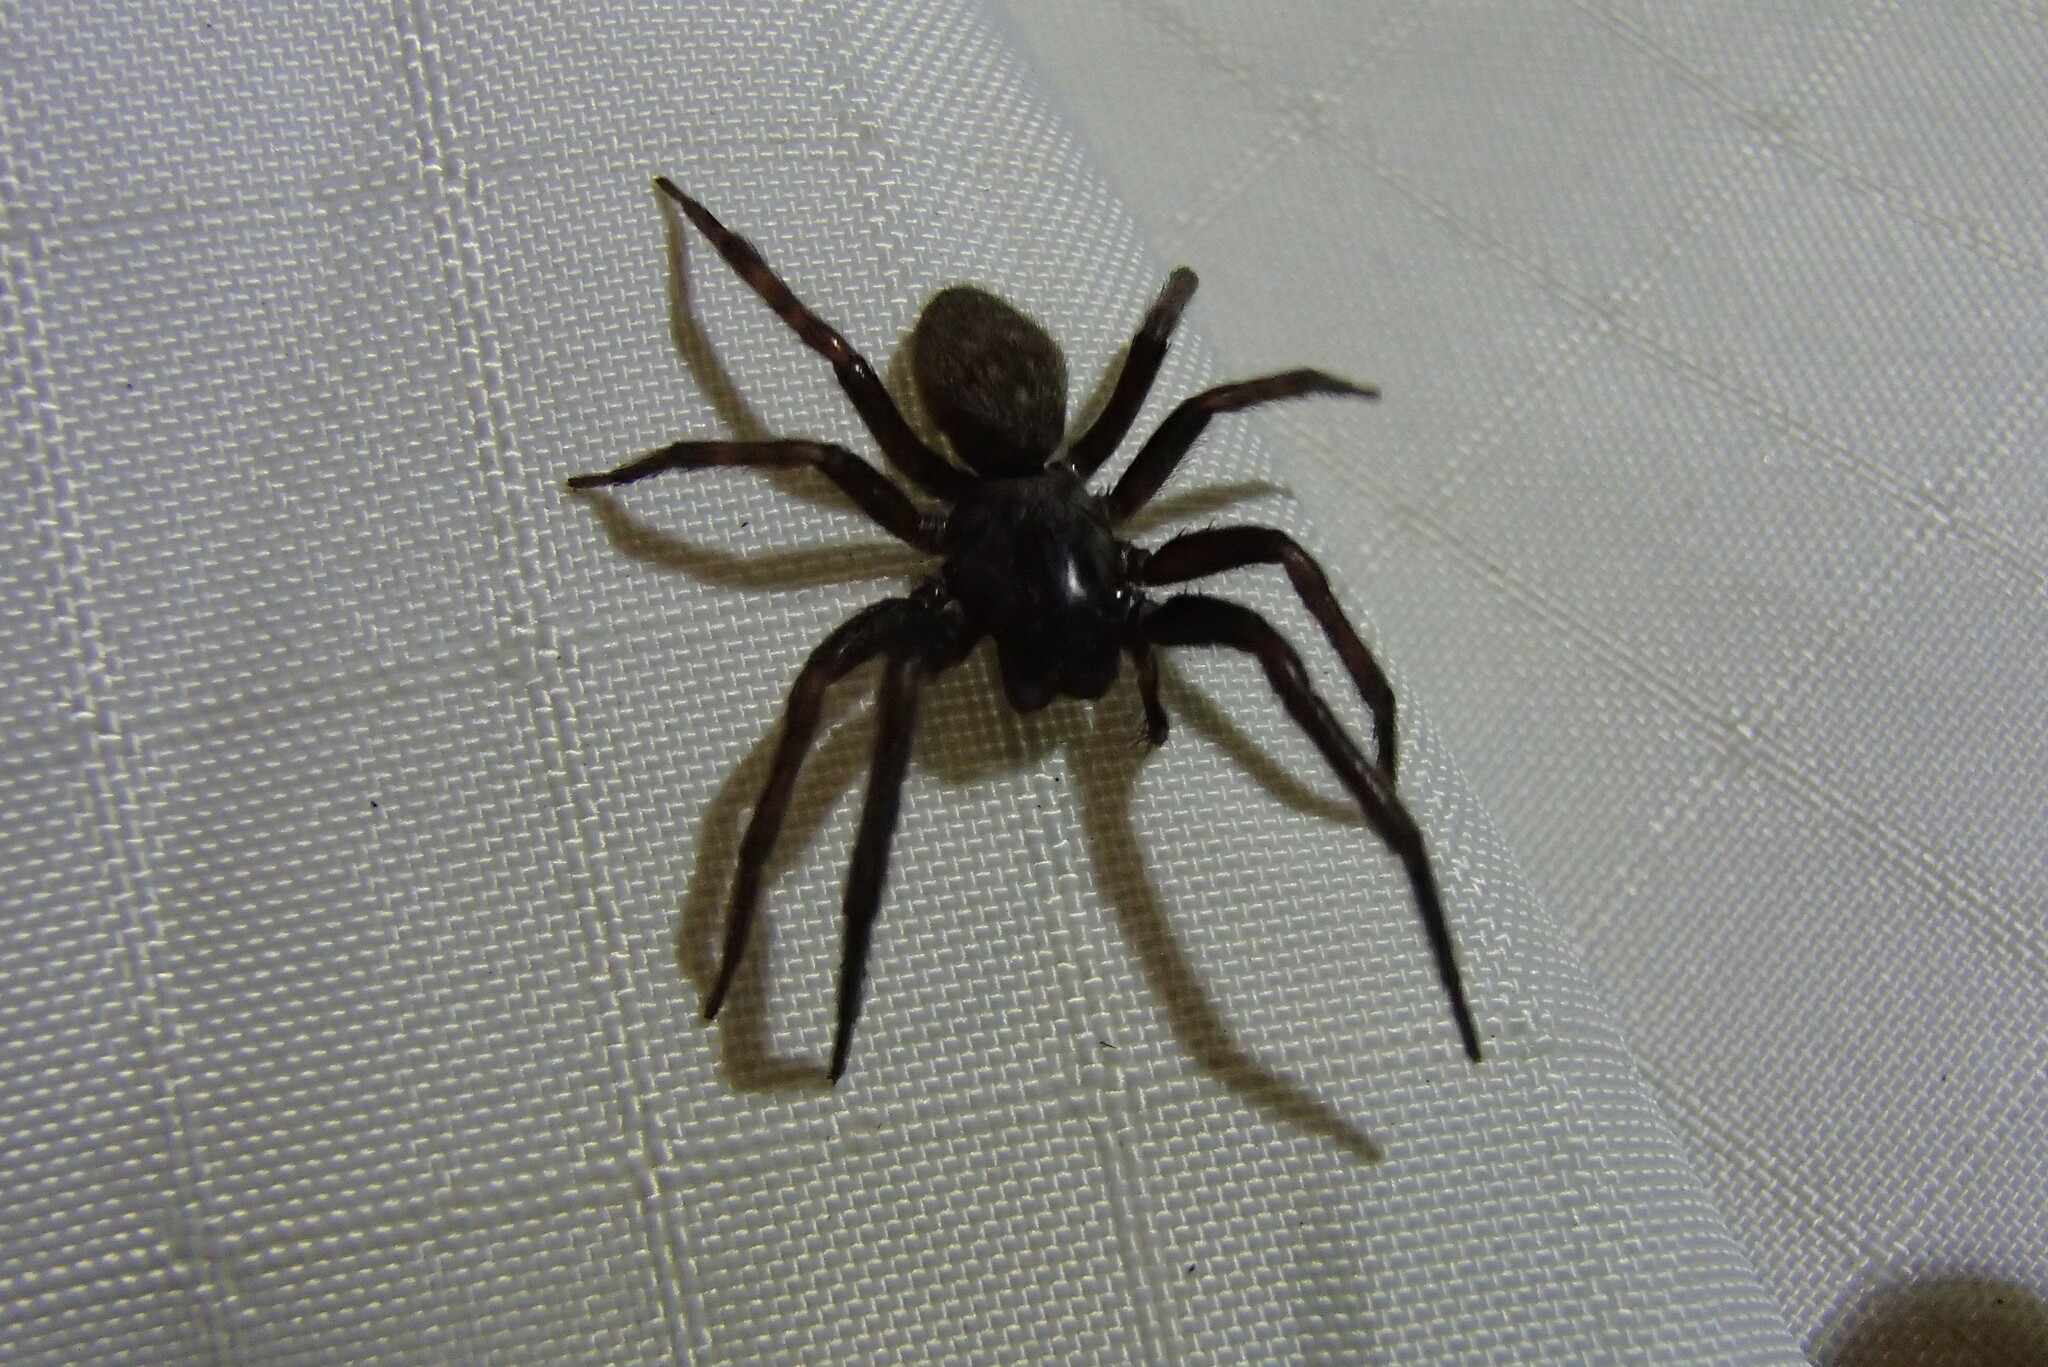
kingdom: Animalia
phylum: Arthropoda
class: Arachnida
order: Araneae
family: Desidae
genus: Badumna
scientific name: Badumna insignis
